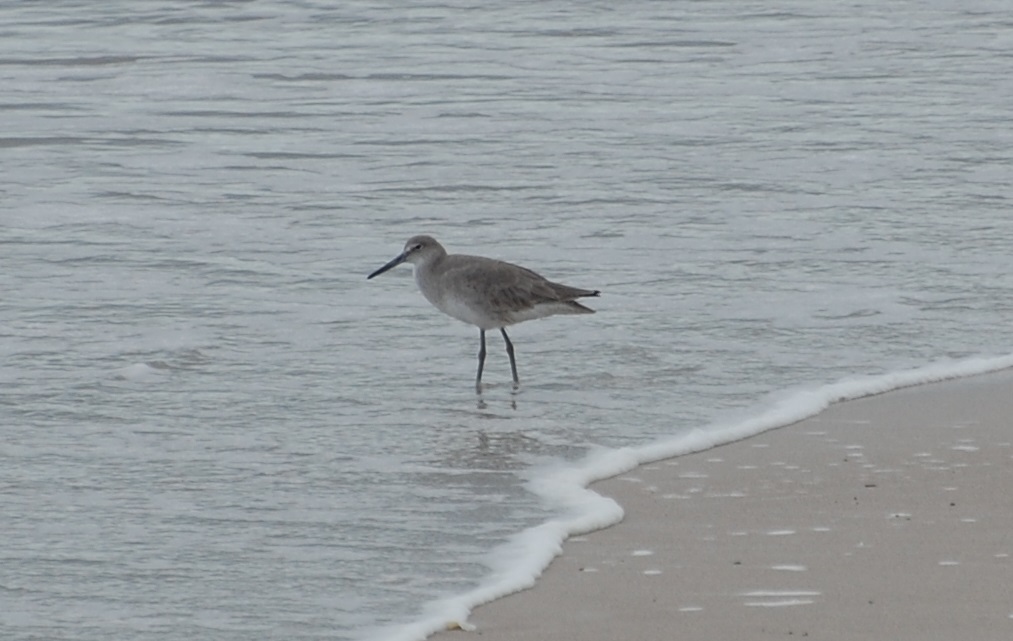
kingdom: Animalia
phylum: Chordata
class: Aves
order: Charadriiformes
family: Scolopacidae
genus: Tringa
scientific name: Tringa semipalmata
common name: Willet
